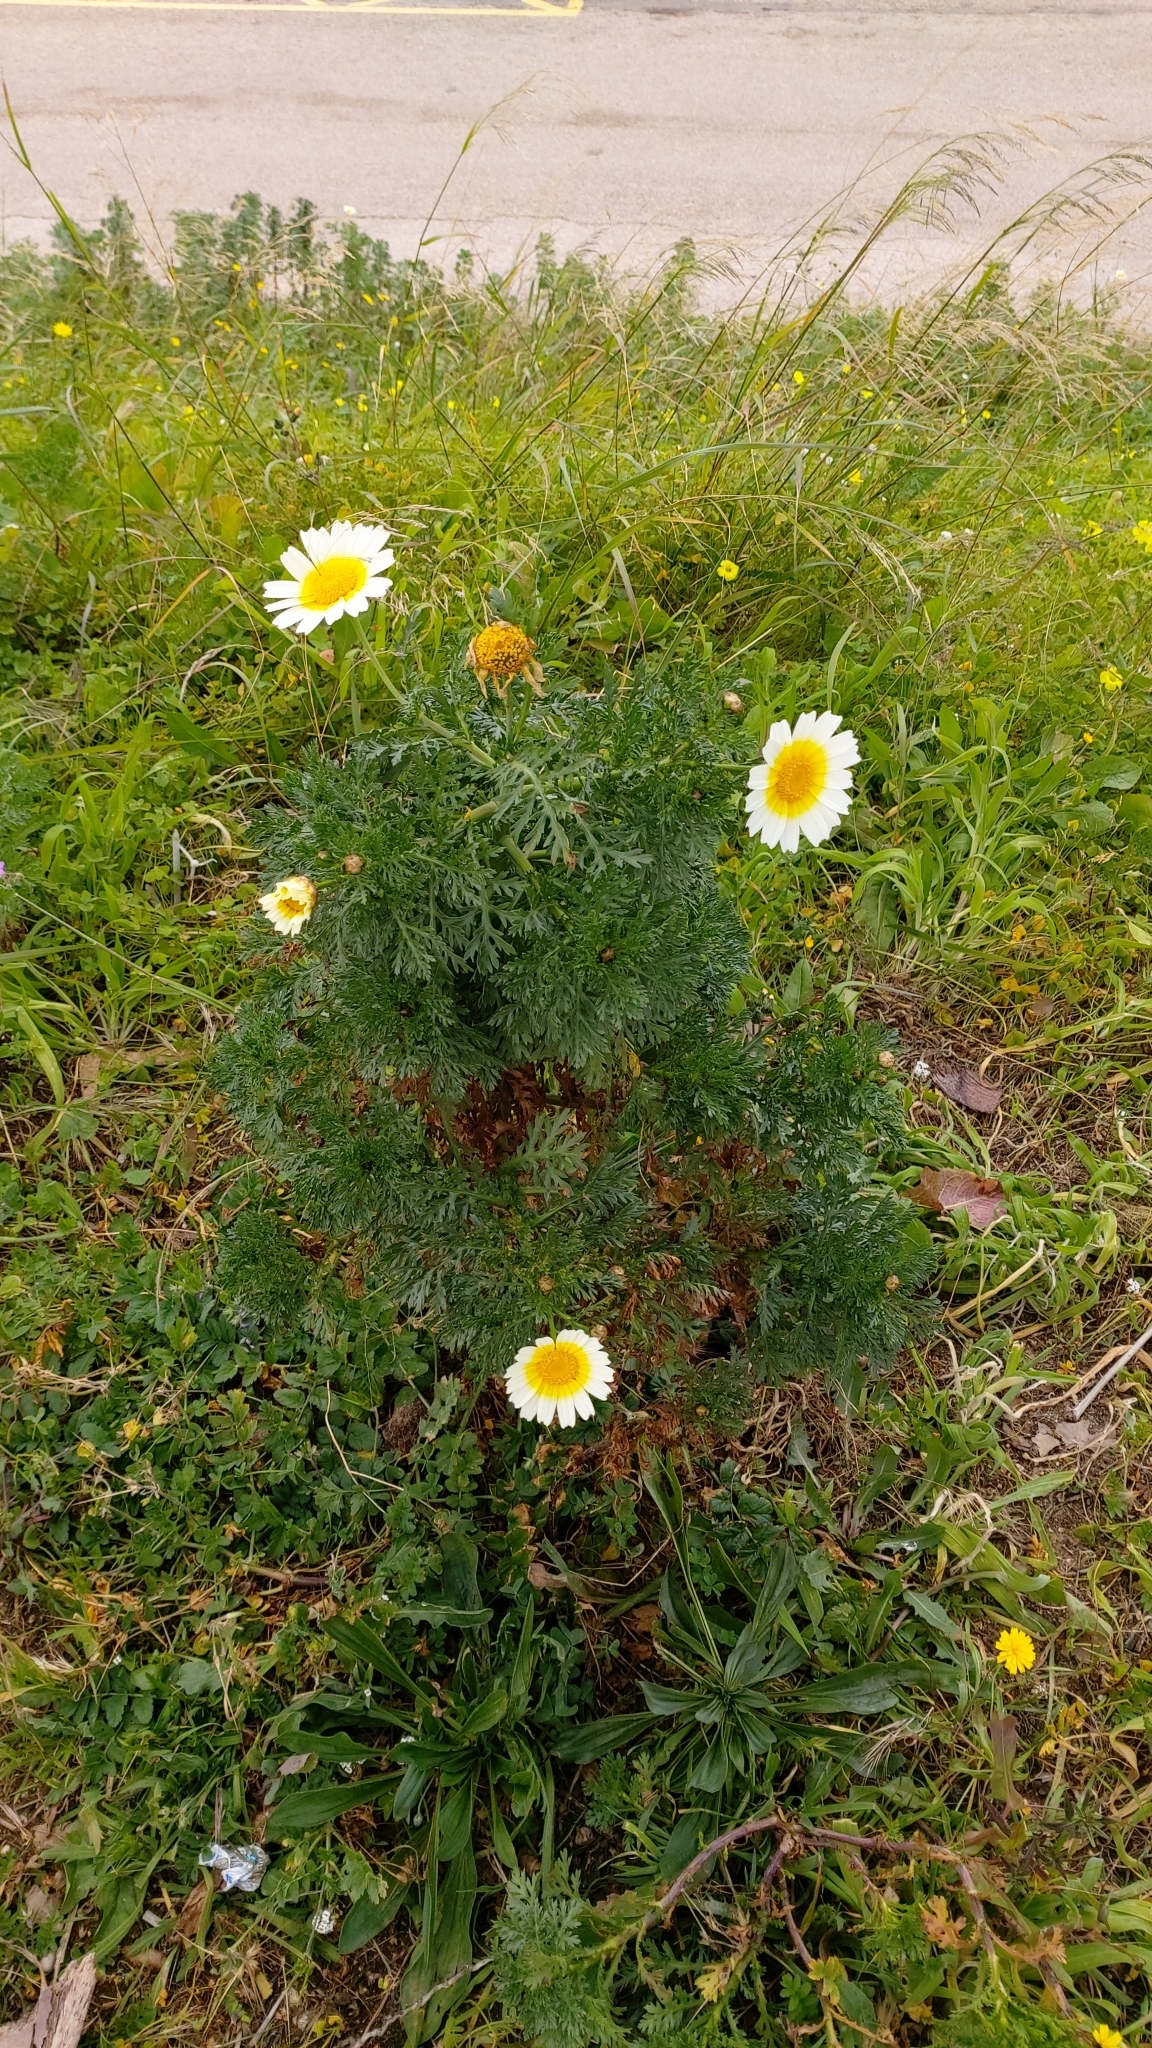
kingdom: Plantae
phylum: Tracheophyta
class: Magnoliopsida
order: Asterales
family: Asteraceae
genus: Glebionis
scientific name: Glebionis coronaria
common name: Crowndaisy
